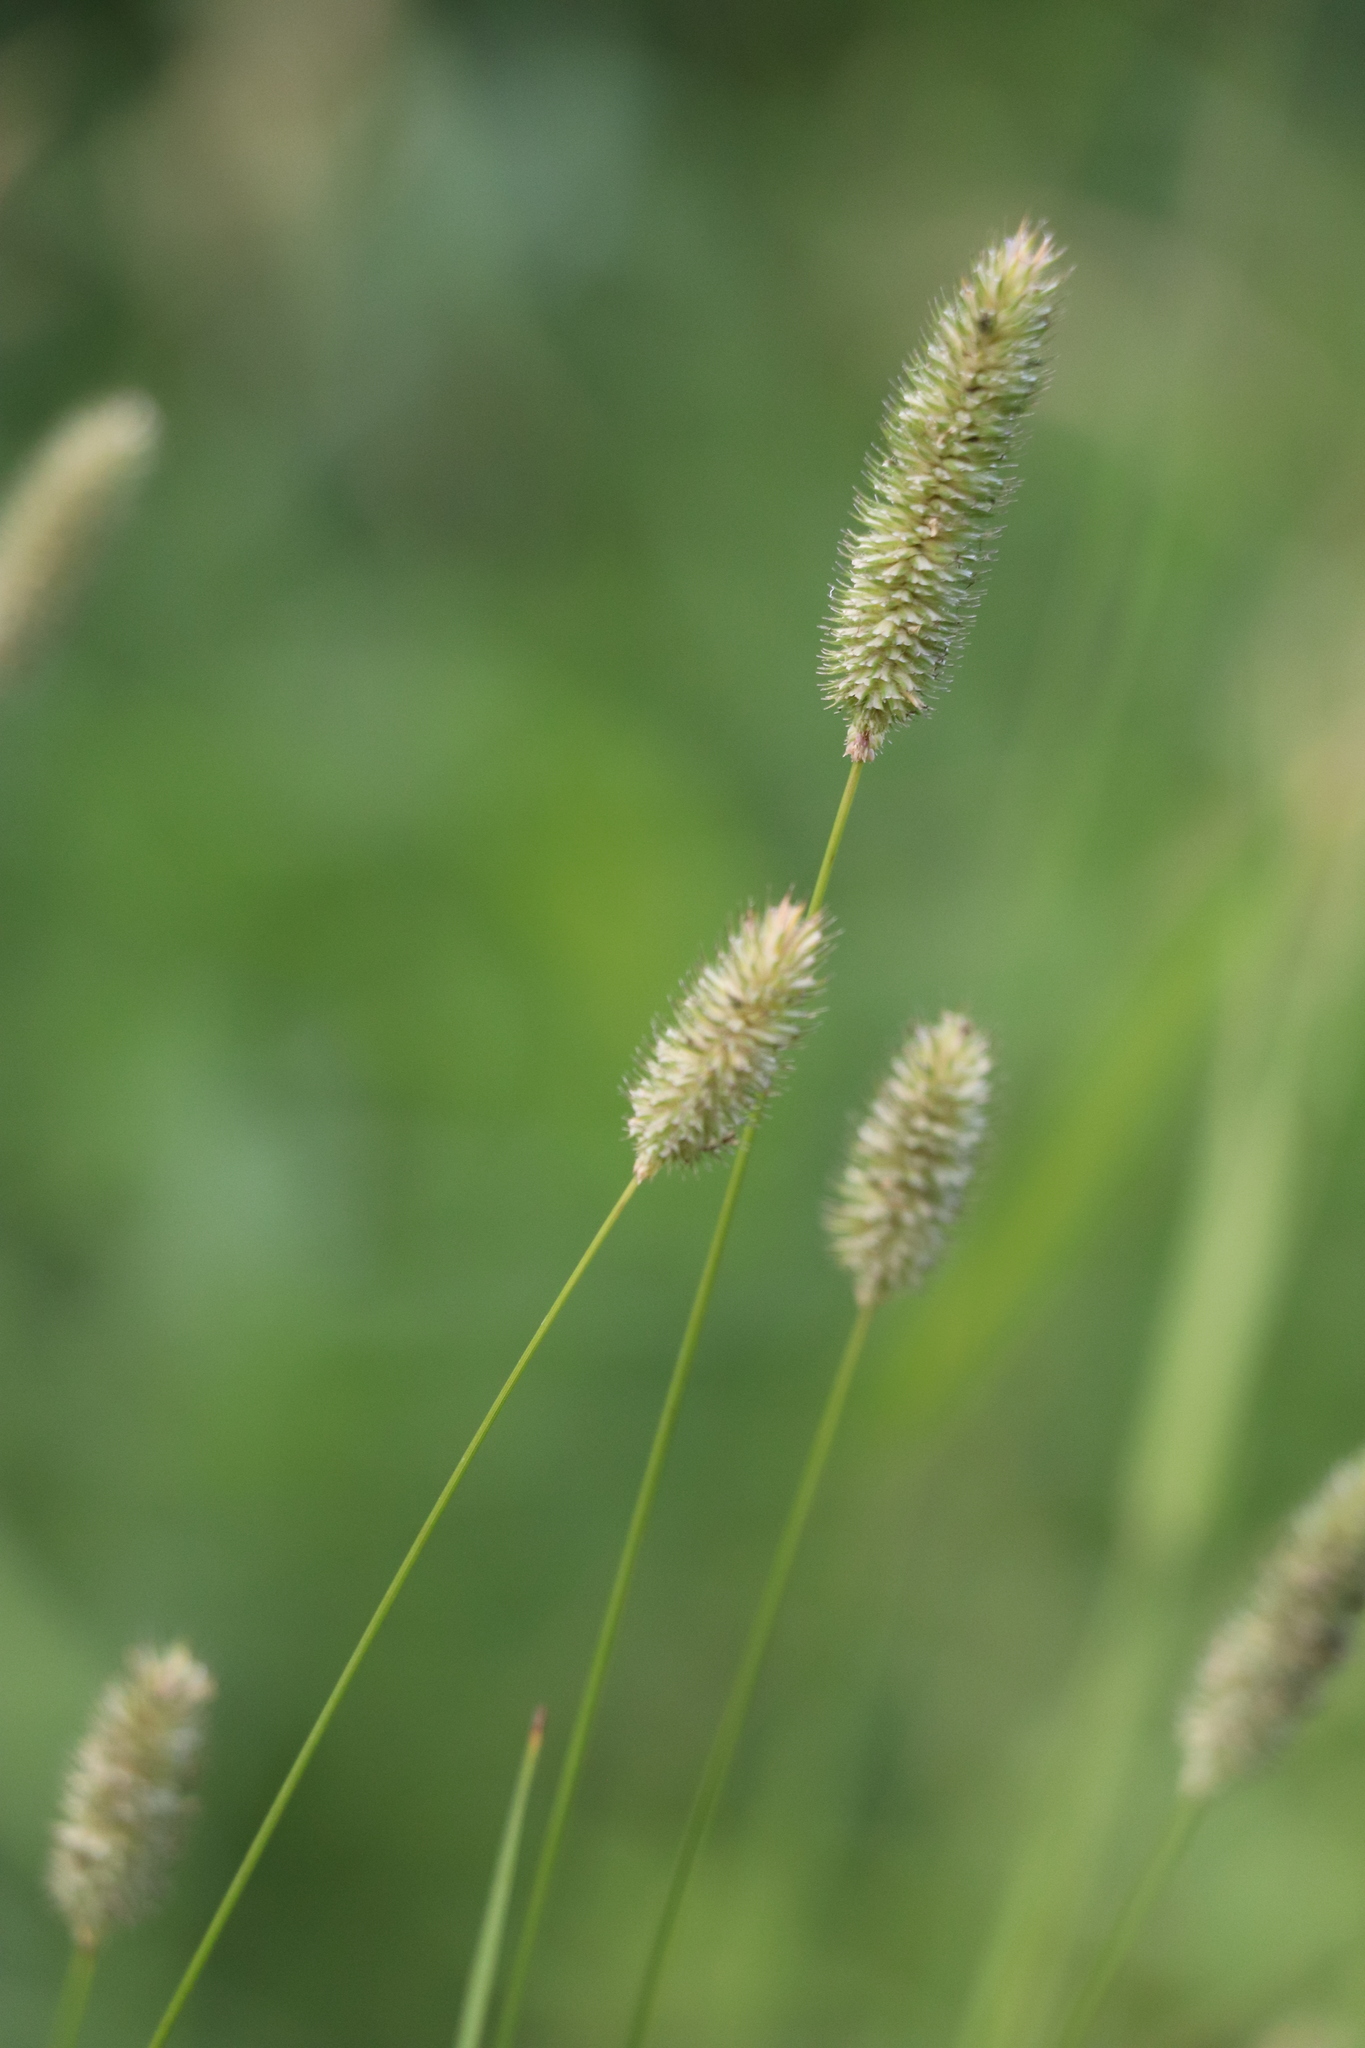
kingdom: Plantae
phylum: Tracheophyta
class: Liliopsida
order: Poales
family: Poaceae
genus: Phleum
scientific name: Phleum pratense
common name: Timothy grass
